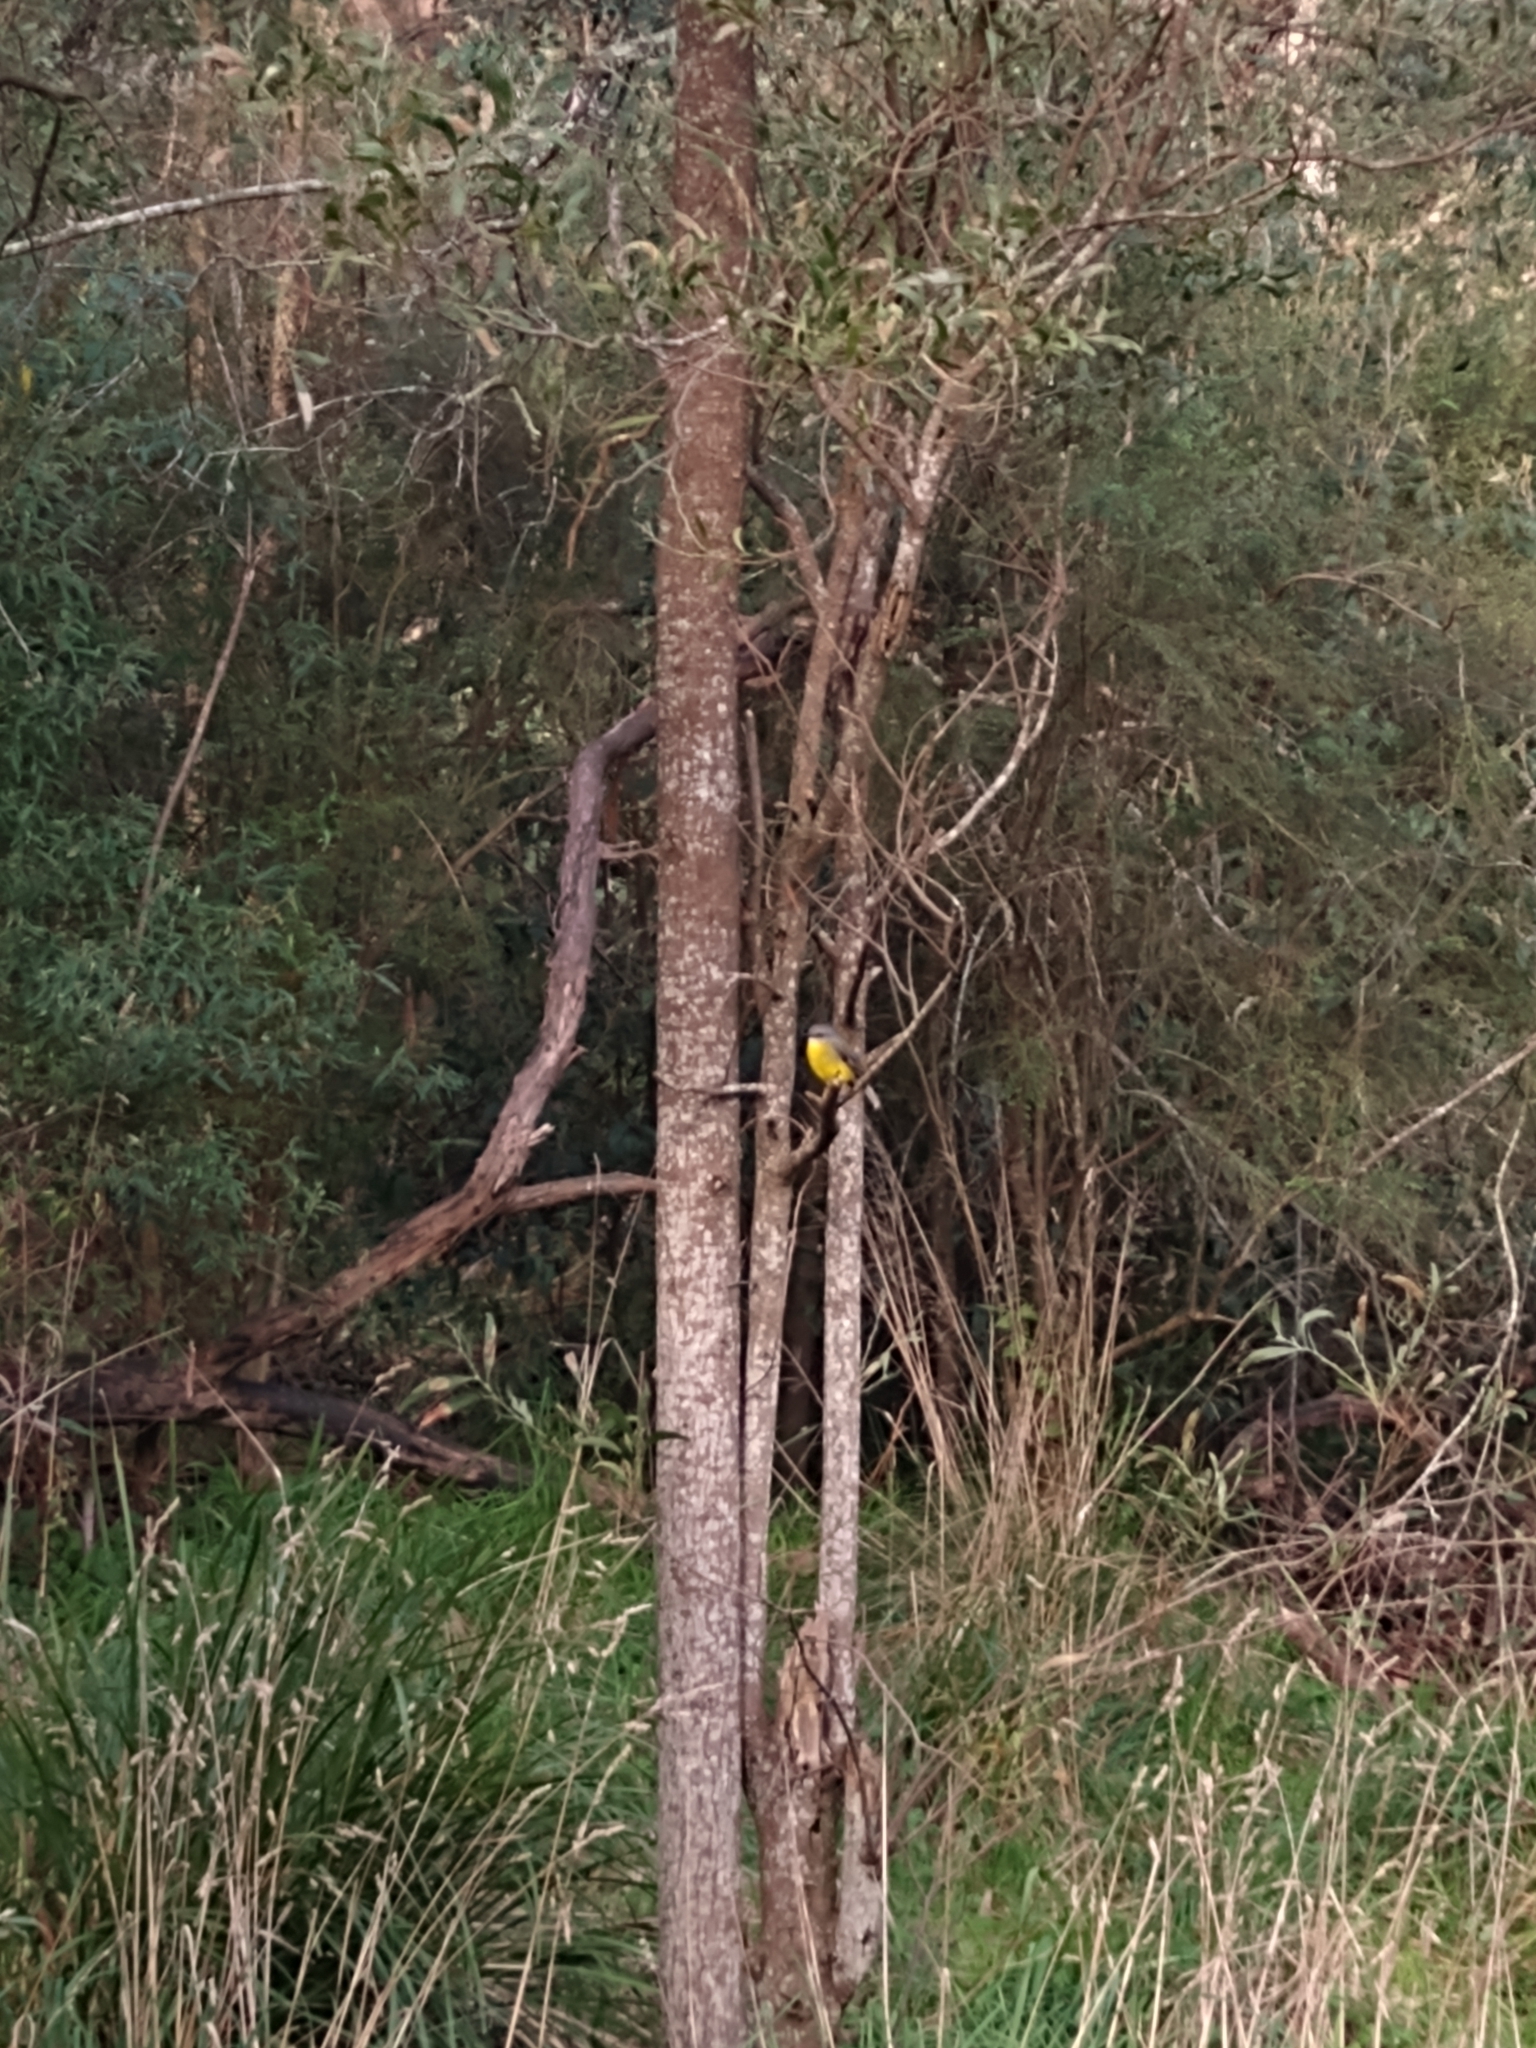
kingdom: Animalia
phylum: Chordata
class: Aves
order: Passeriformes
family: Petroicidae
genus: Eopsaltria
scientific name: Eopsaltria australis
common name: Eastern yellow robin
